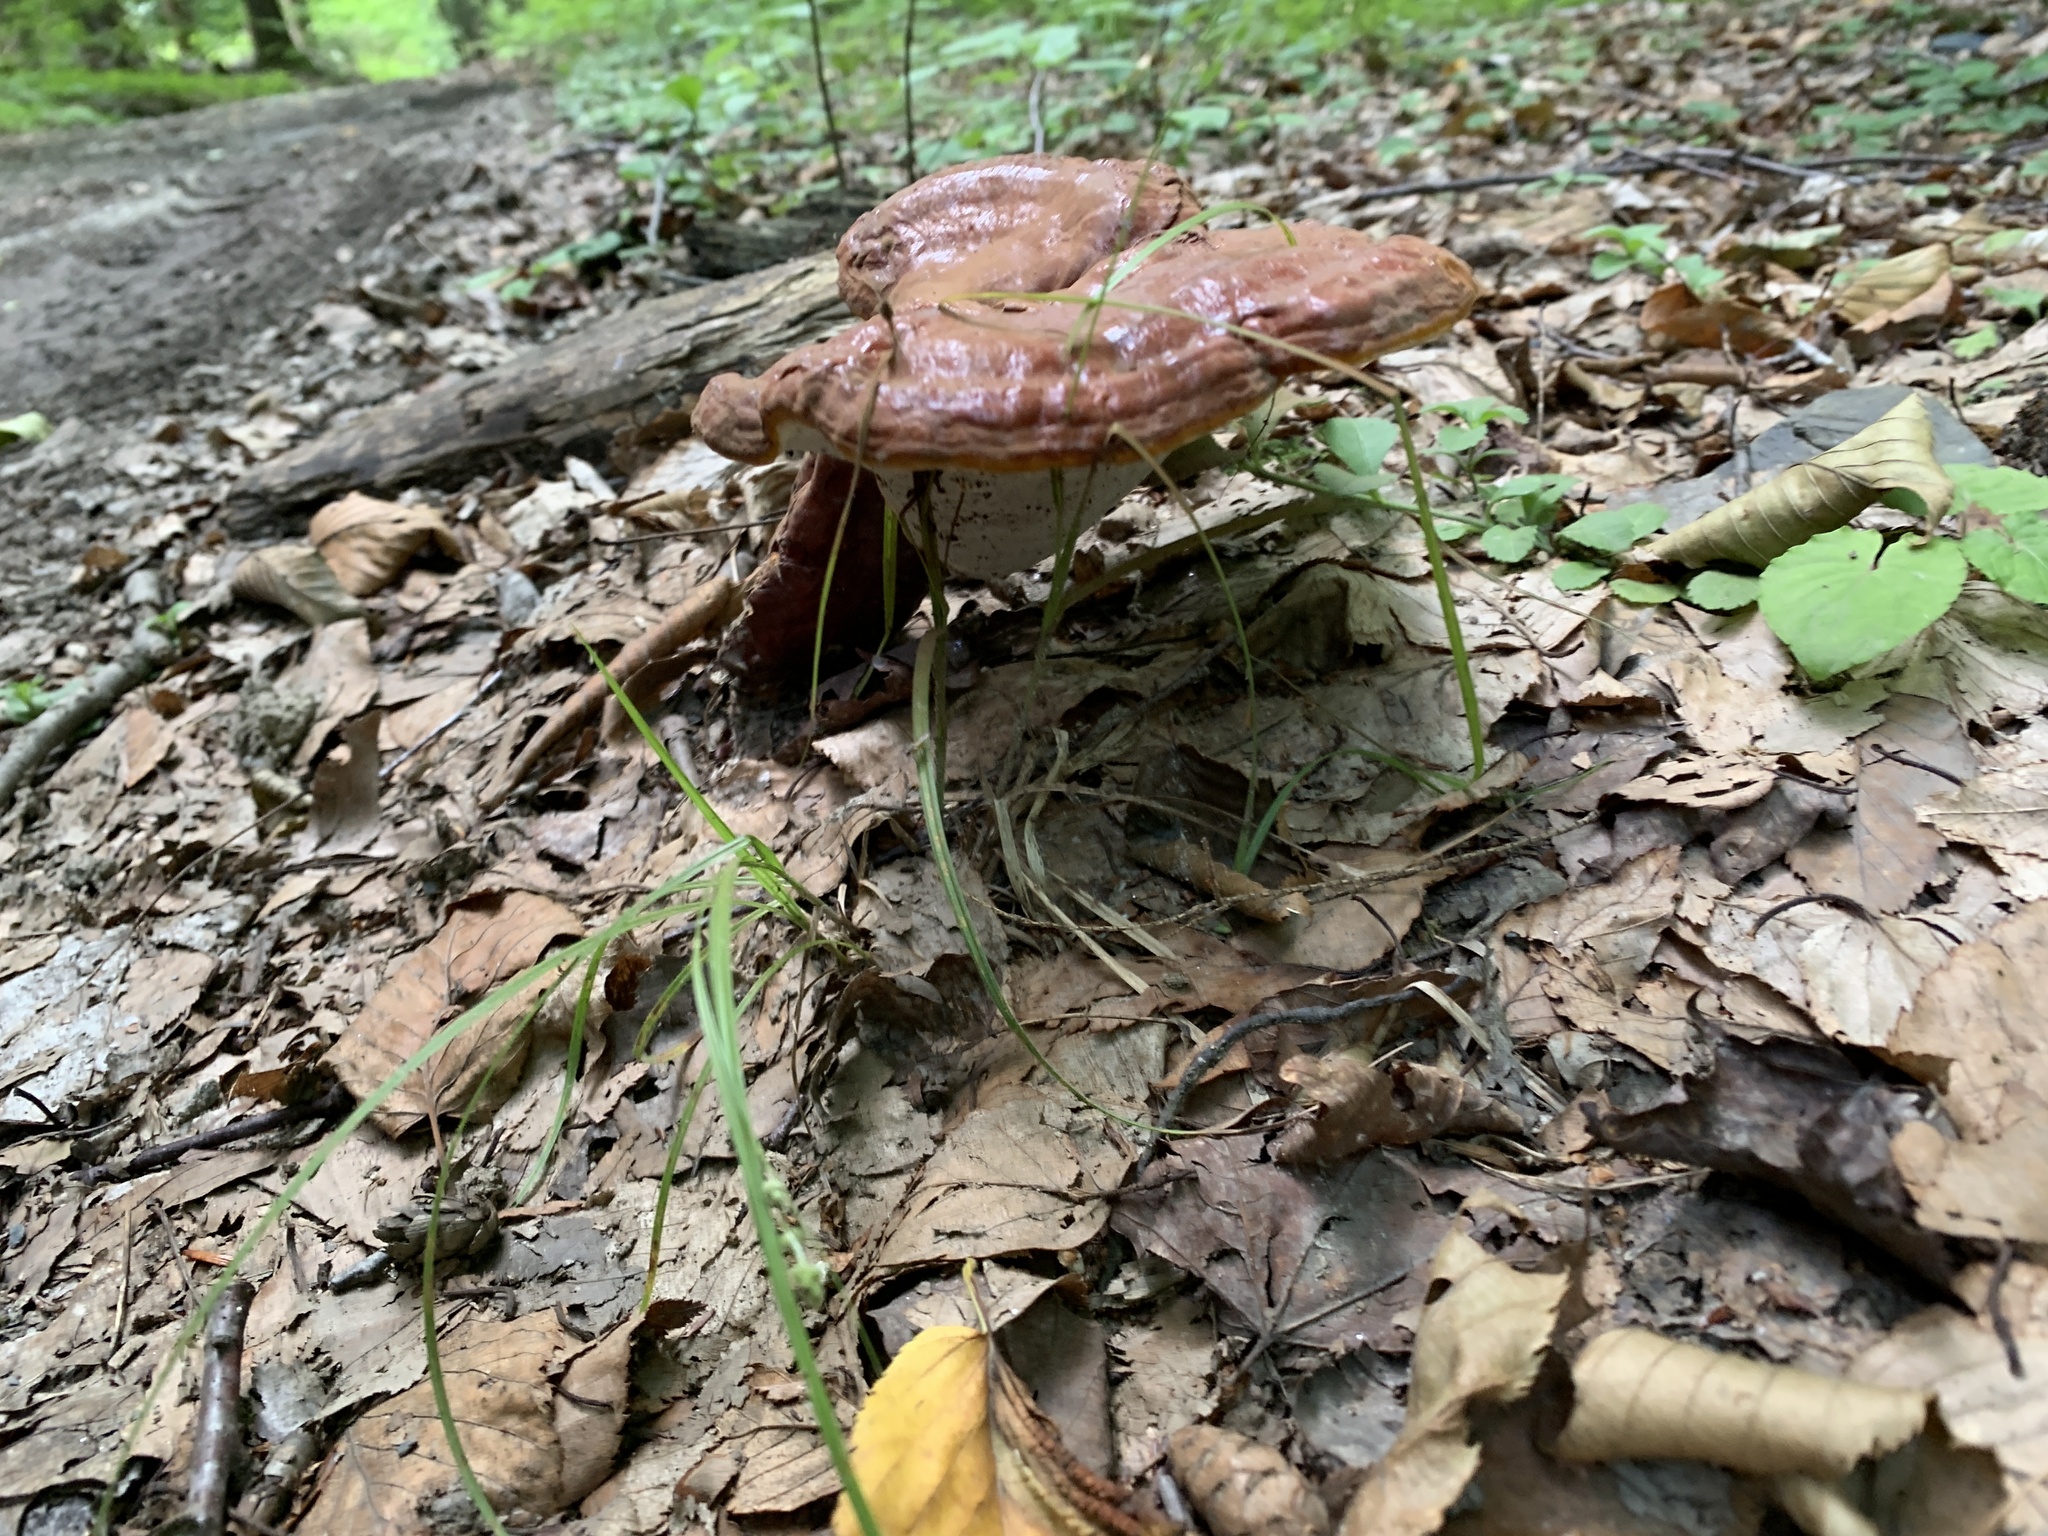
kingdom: Fungi
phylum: Basidiomycota
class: Agaricomycetes
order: Polyporales
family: Polyporaceae
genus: Ganoderma
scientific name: Ganoderma tsugae
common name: Hemlock varnish shelf
